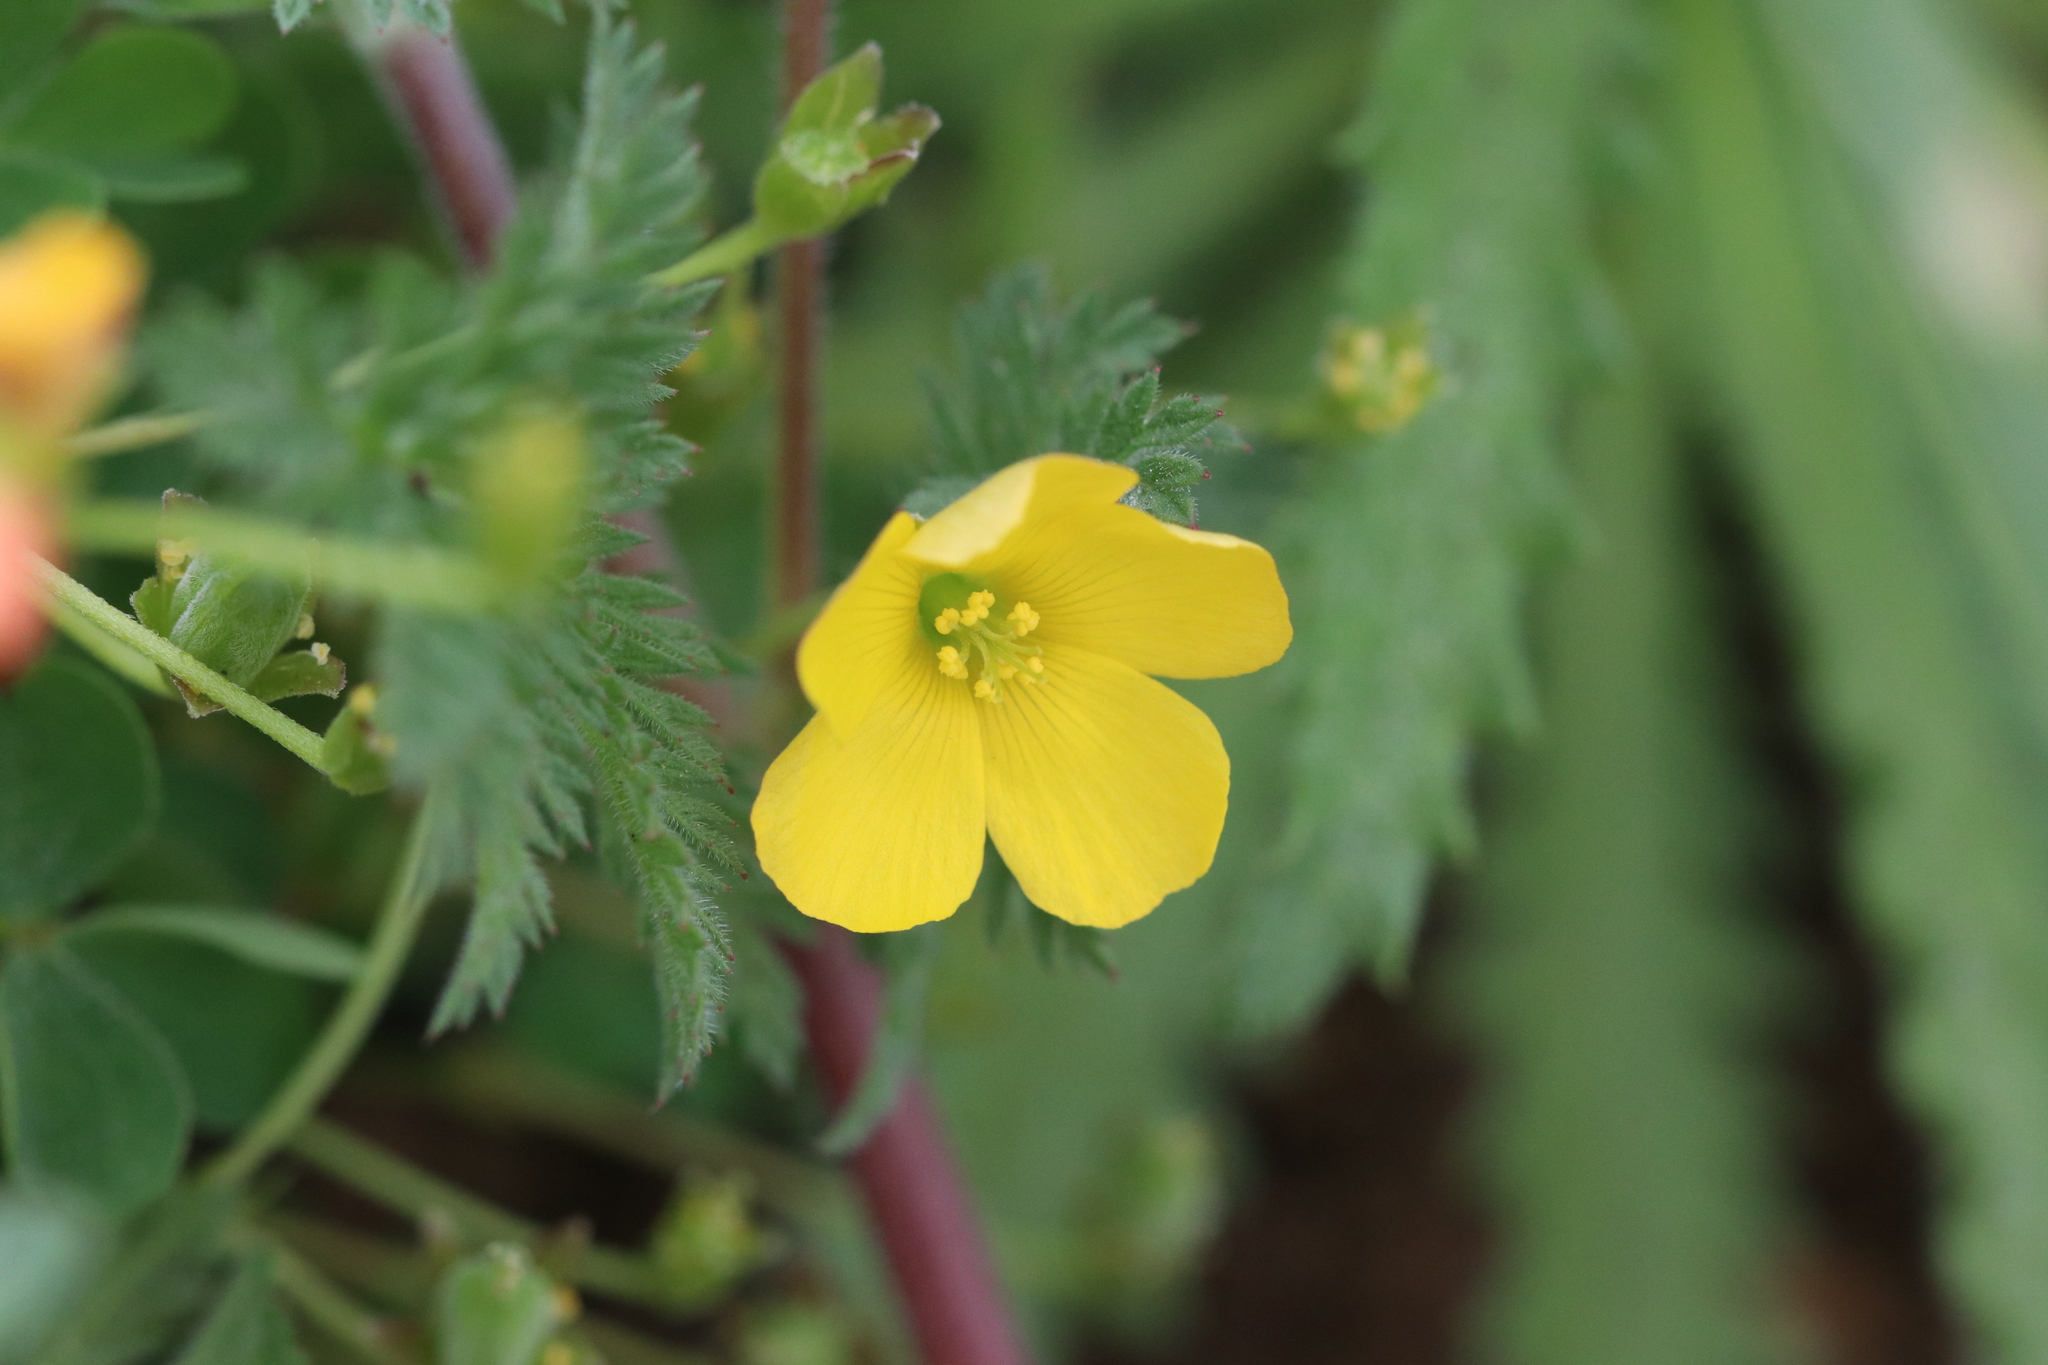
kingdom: Plantae
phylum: Tracheophyta
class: Magnoliopsida
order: Oxalidales
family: Oxalidaceae
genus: Oxalis
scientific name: Oxalis californica
